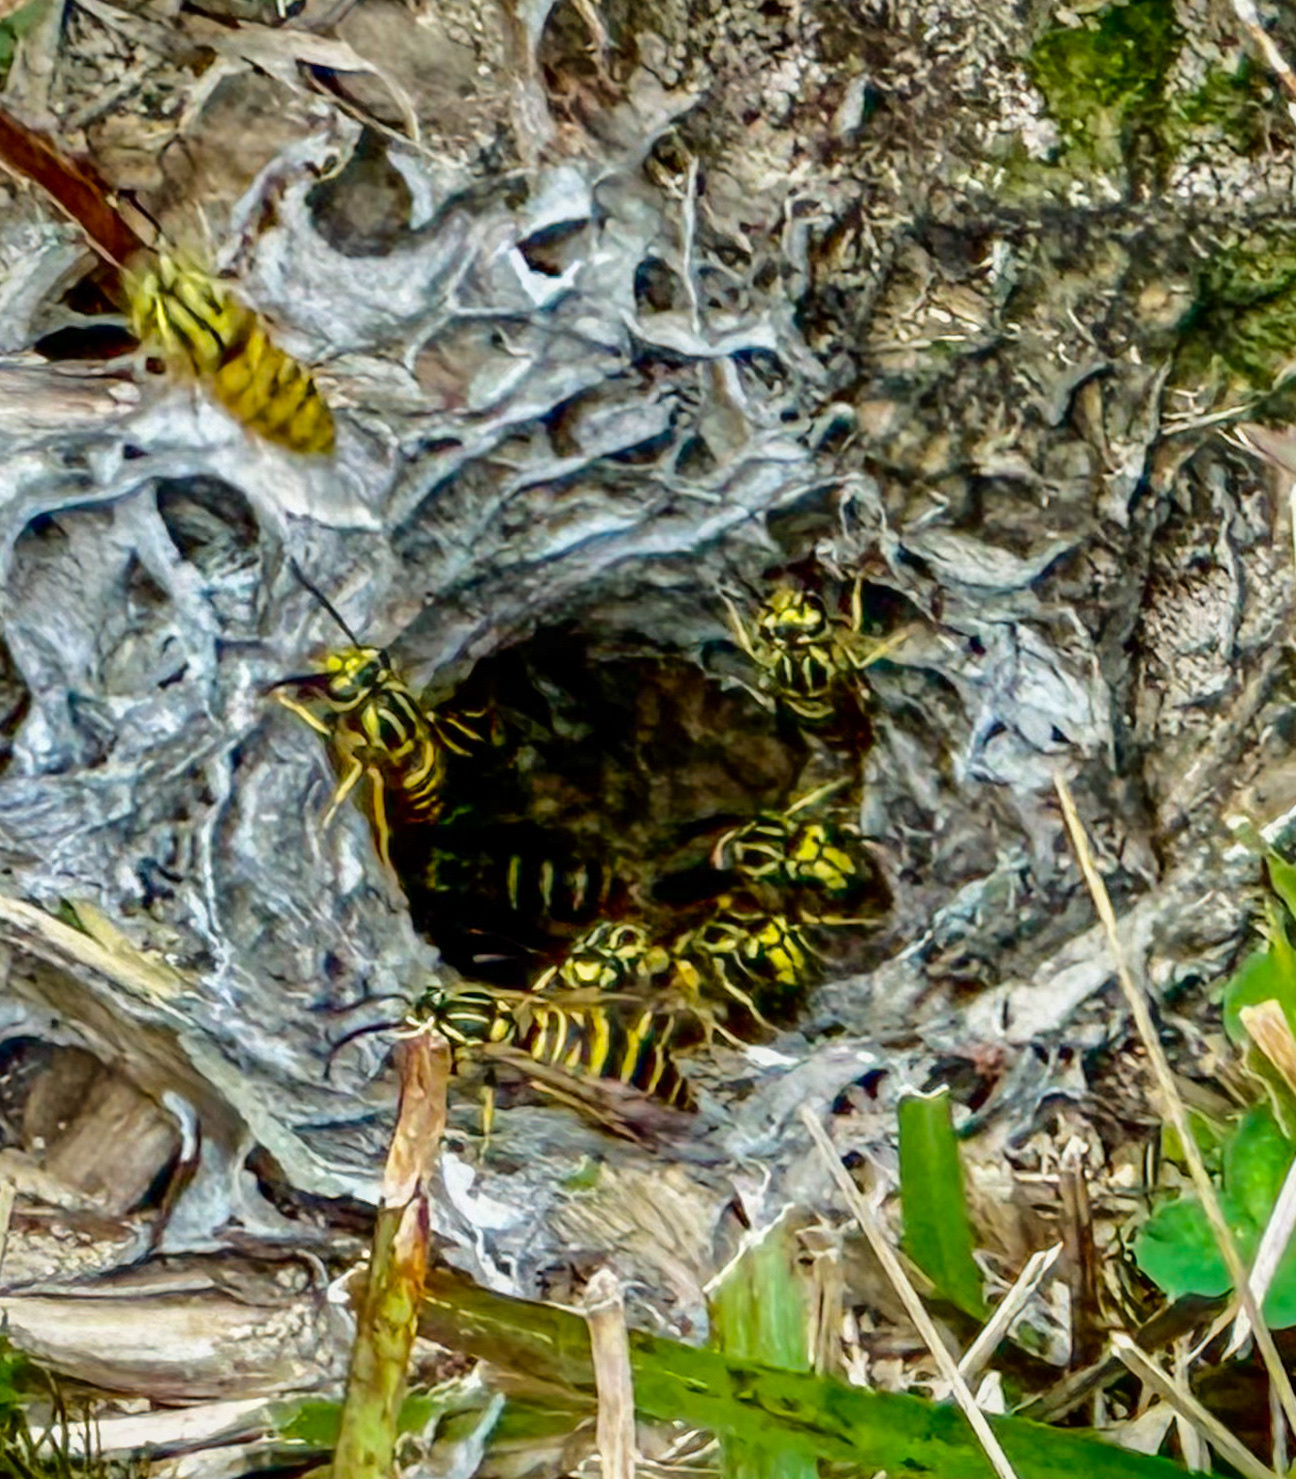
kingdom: Animalia
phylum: Arthropoda
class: Insecta
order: Hymenoptera
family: Vespidae
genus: Vespula
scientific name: Vespula squamosa
